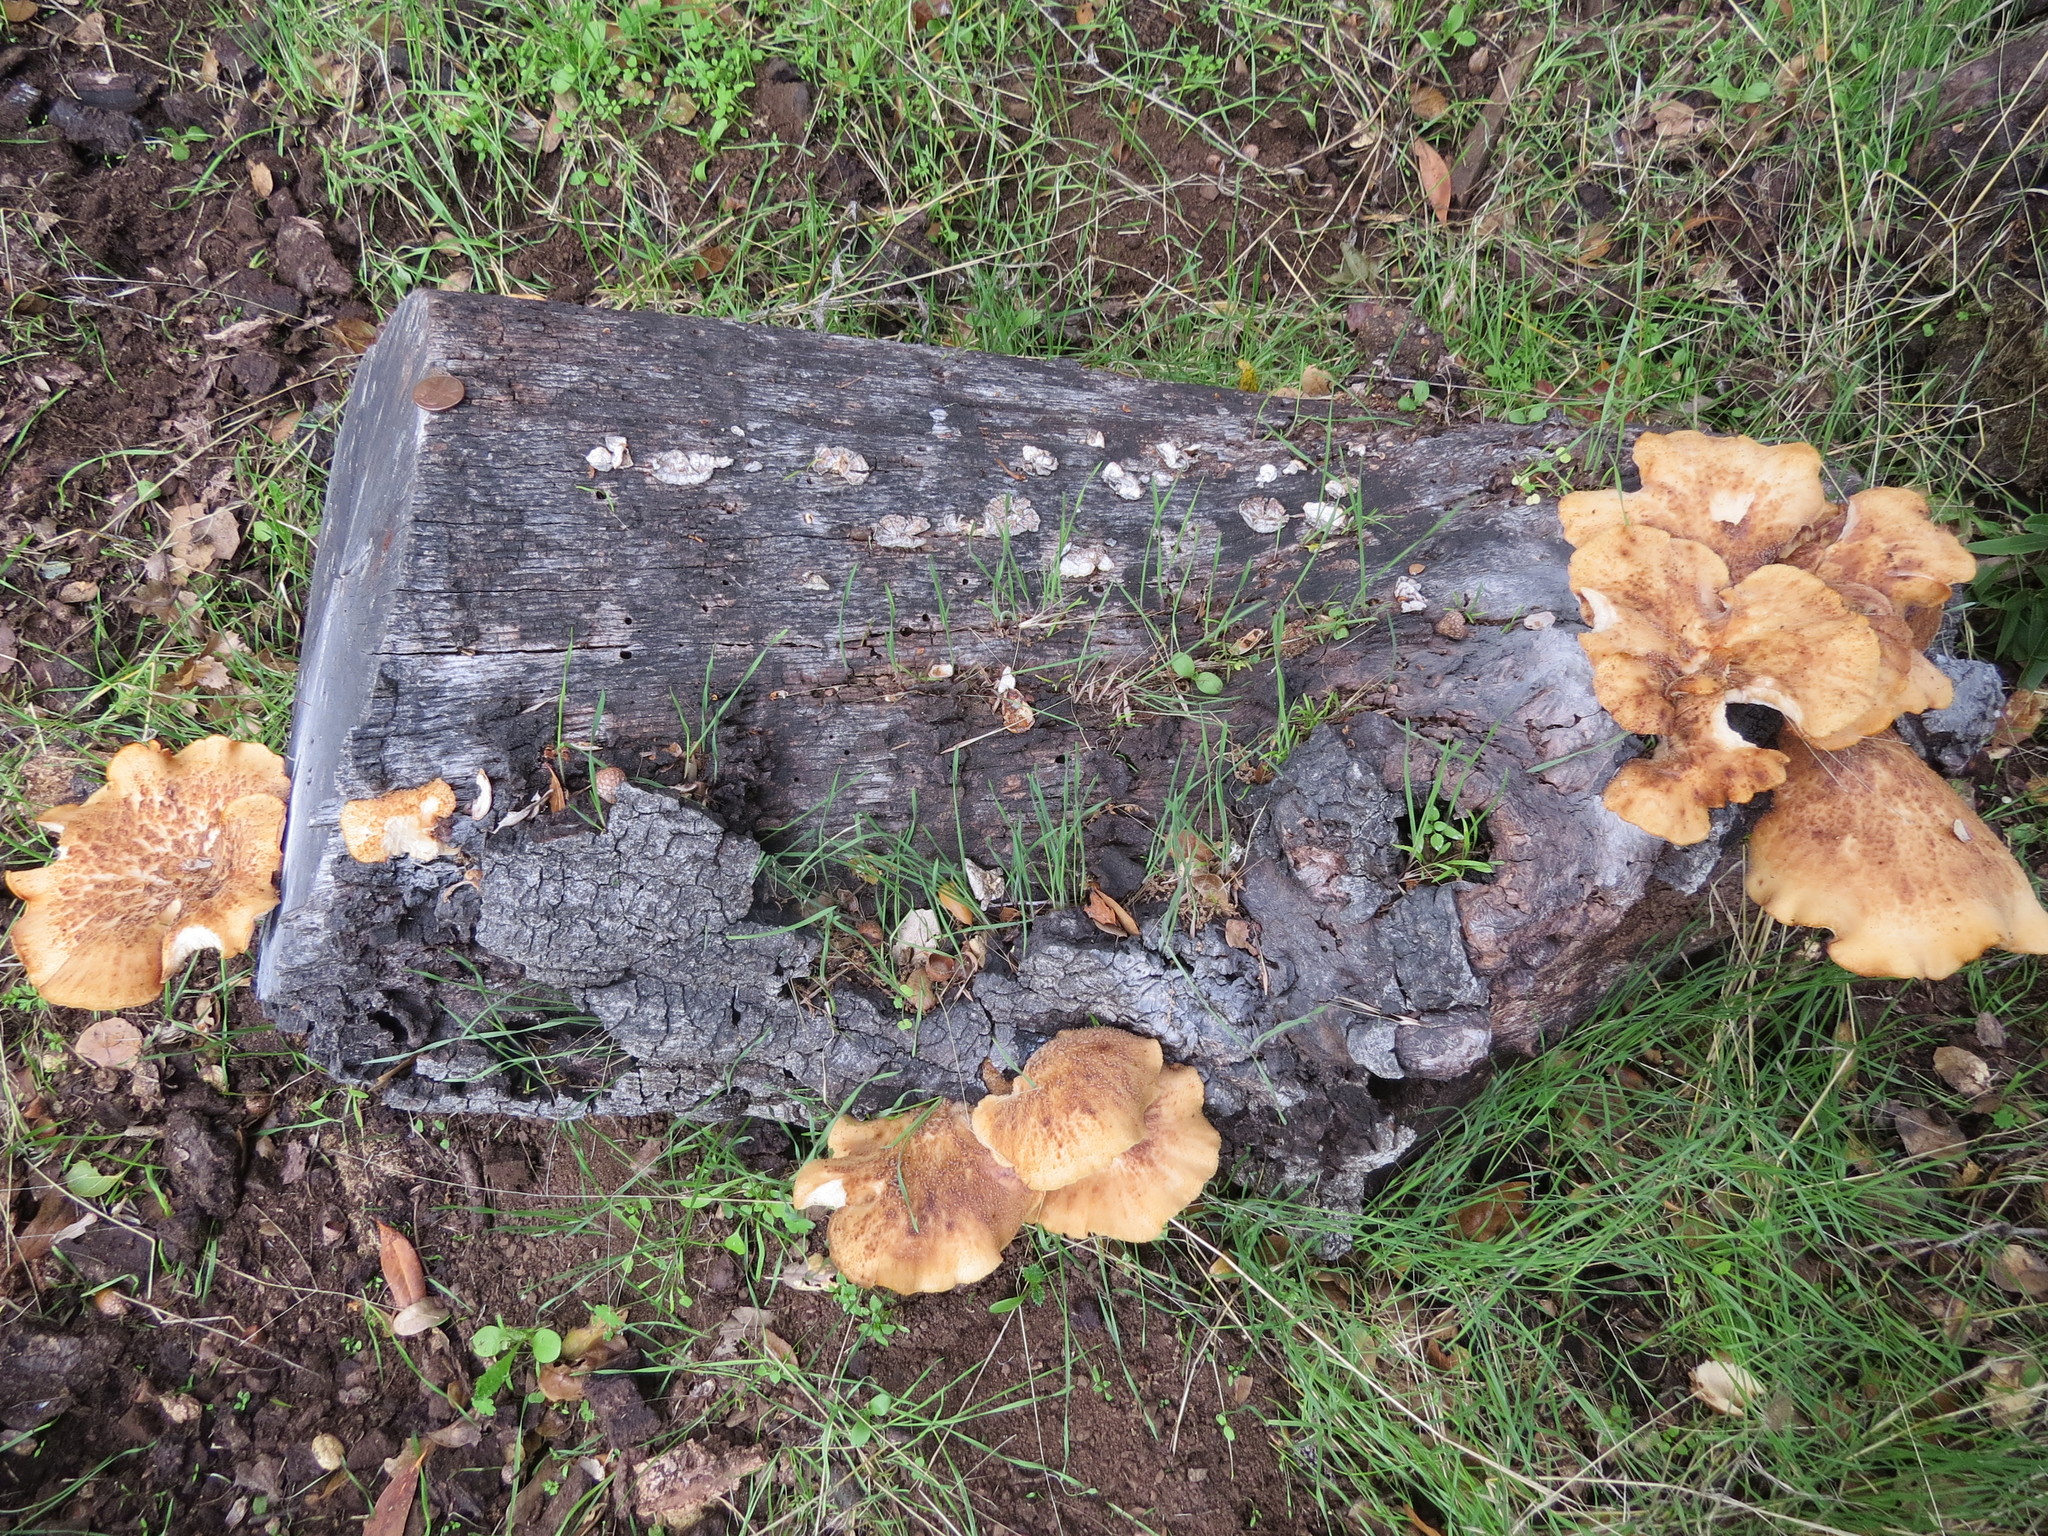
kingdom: Fungi
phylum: Basidiomycota
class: Agaricomycetes
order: Polyporales
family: Polyporaceae
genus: Polyporus
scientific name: Polyporus tuberaster
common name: Tuberous polypore
